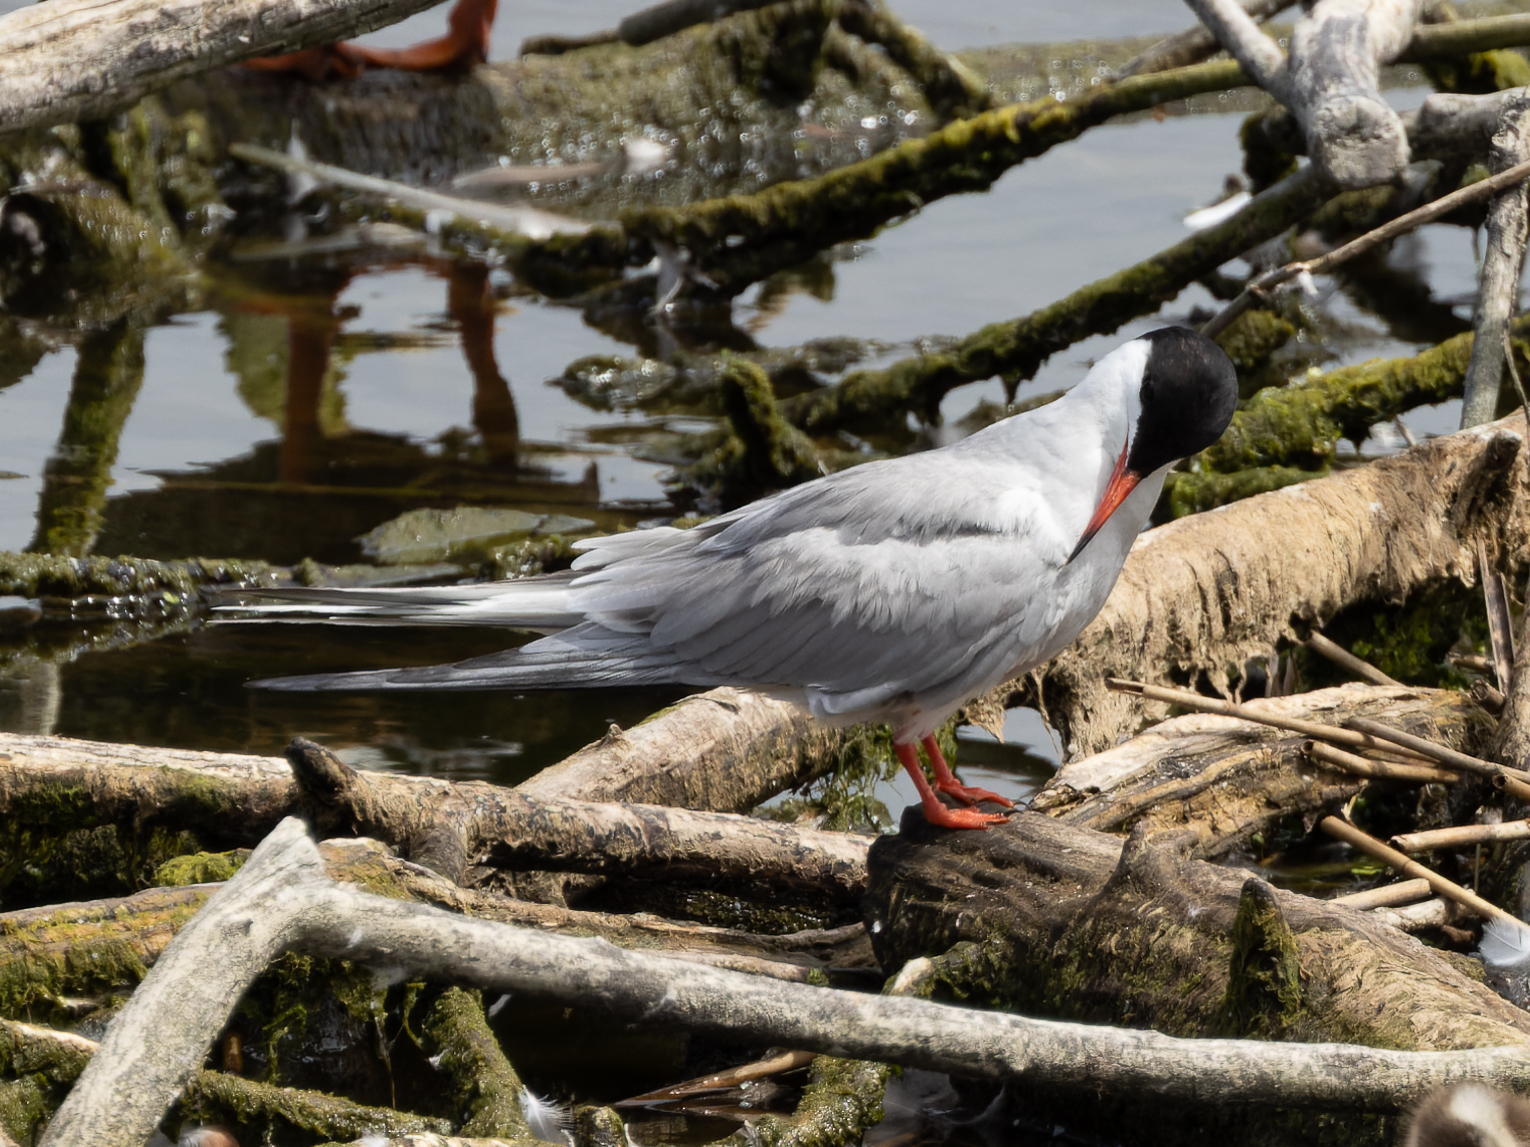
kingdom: Animalia
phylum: Chordata
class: Aves
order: Charadriiformes
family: Laridae
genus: Sterna
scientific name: Sterna hirundo
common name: Common tern
